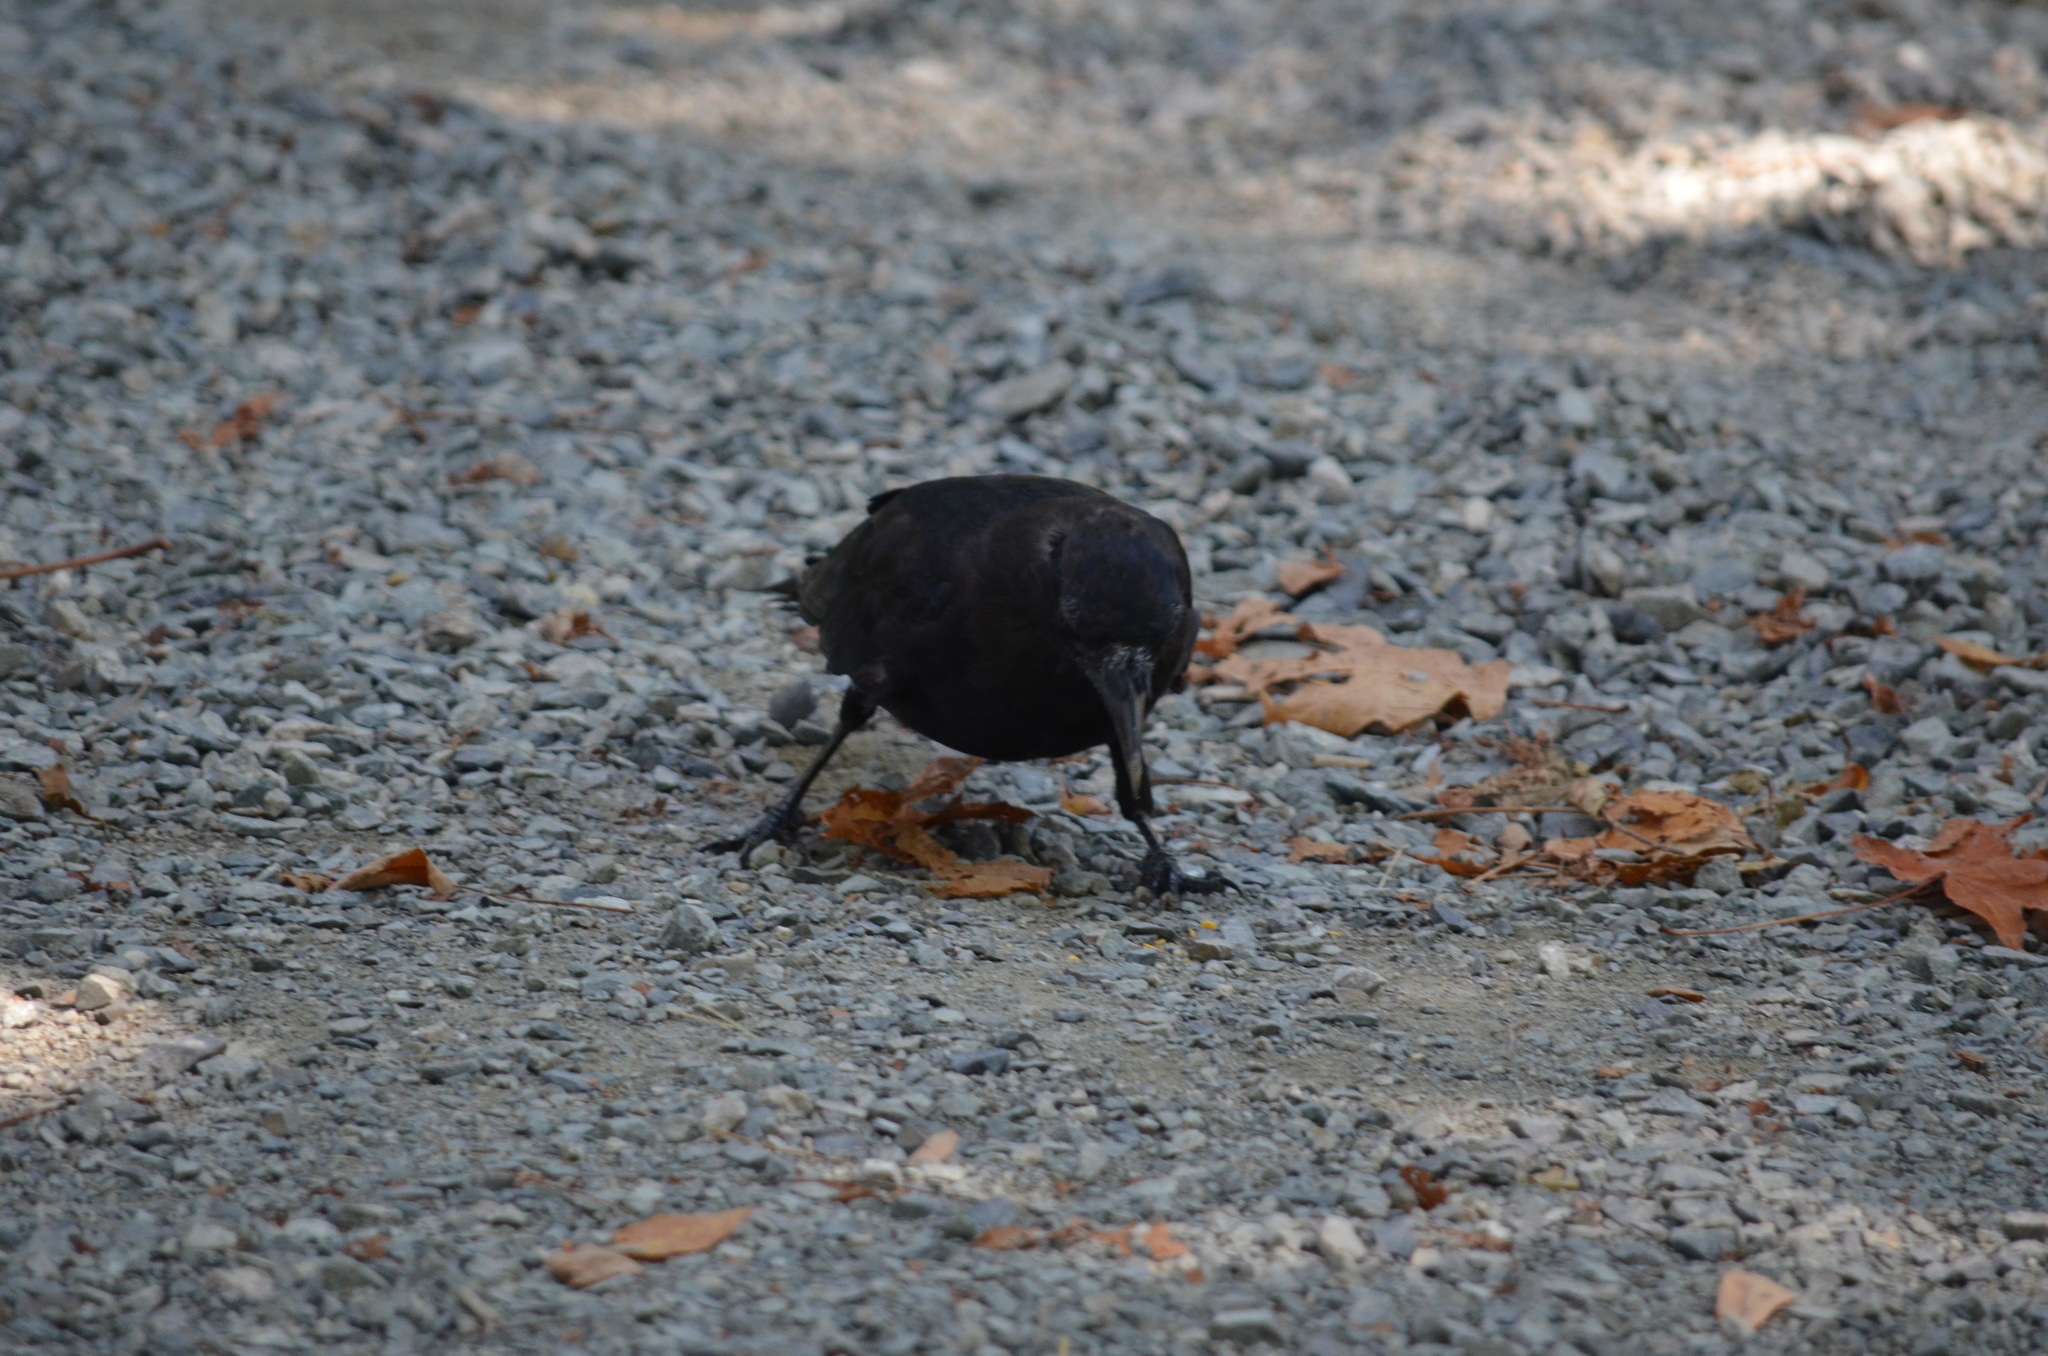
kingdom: Animalia
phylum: Chordata
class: Aves
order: Passeriformes
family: Corvidae
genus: Corvus
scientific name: Corvus brachyrhynchos
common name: American crow
